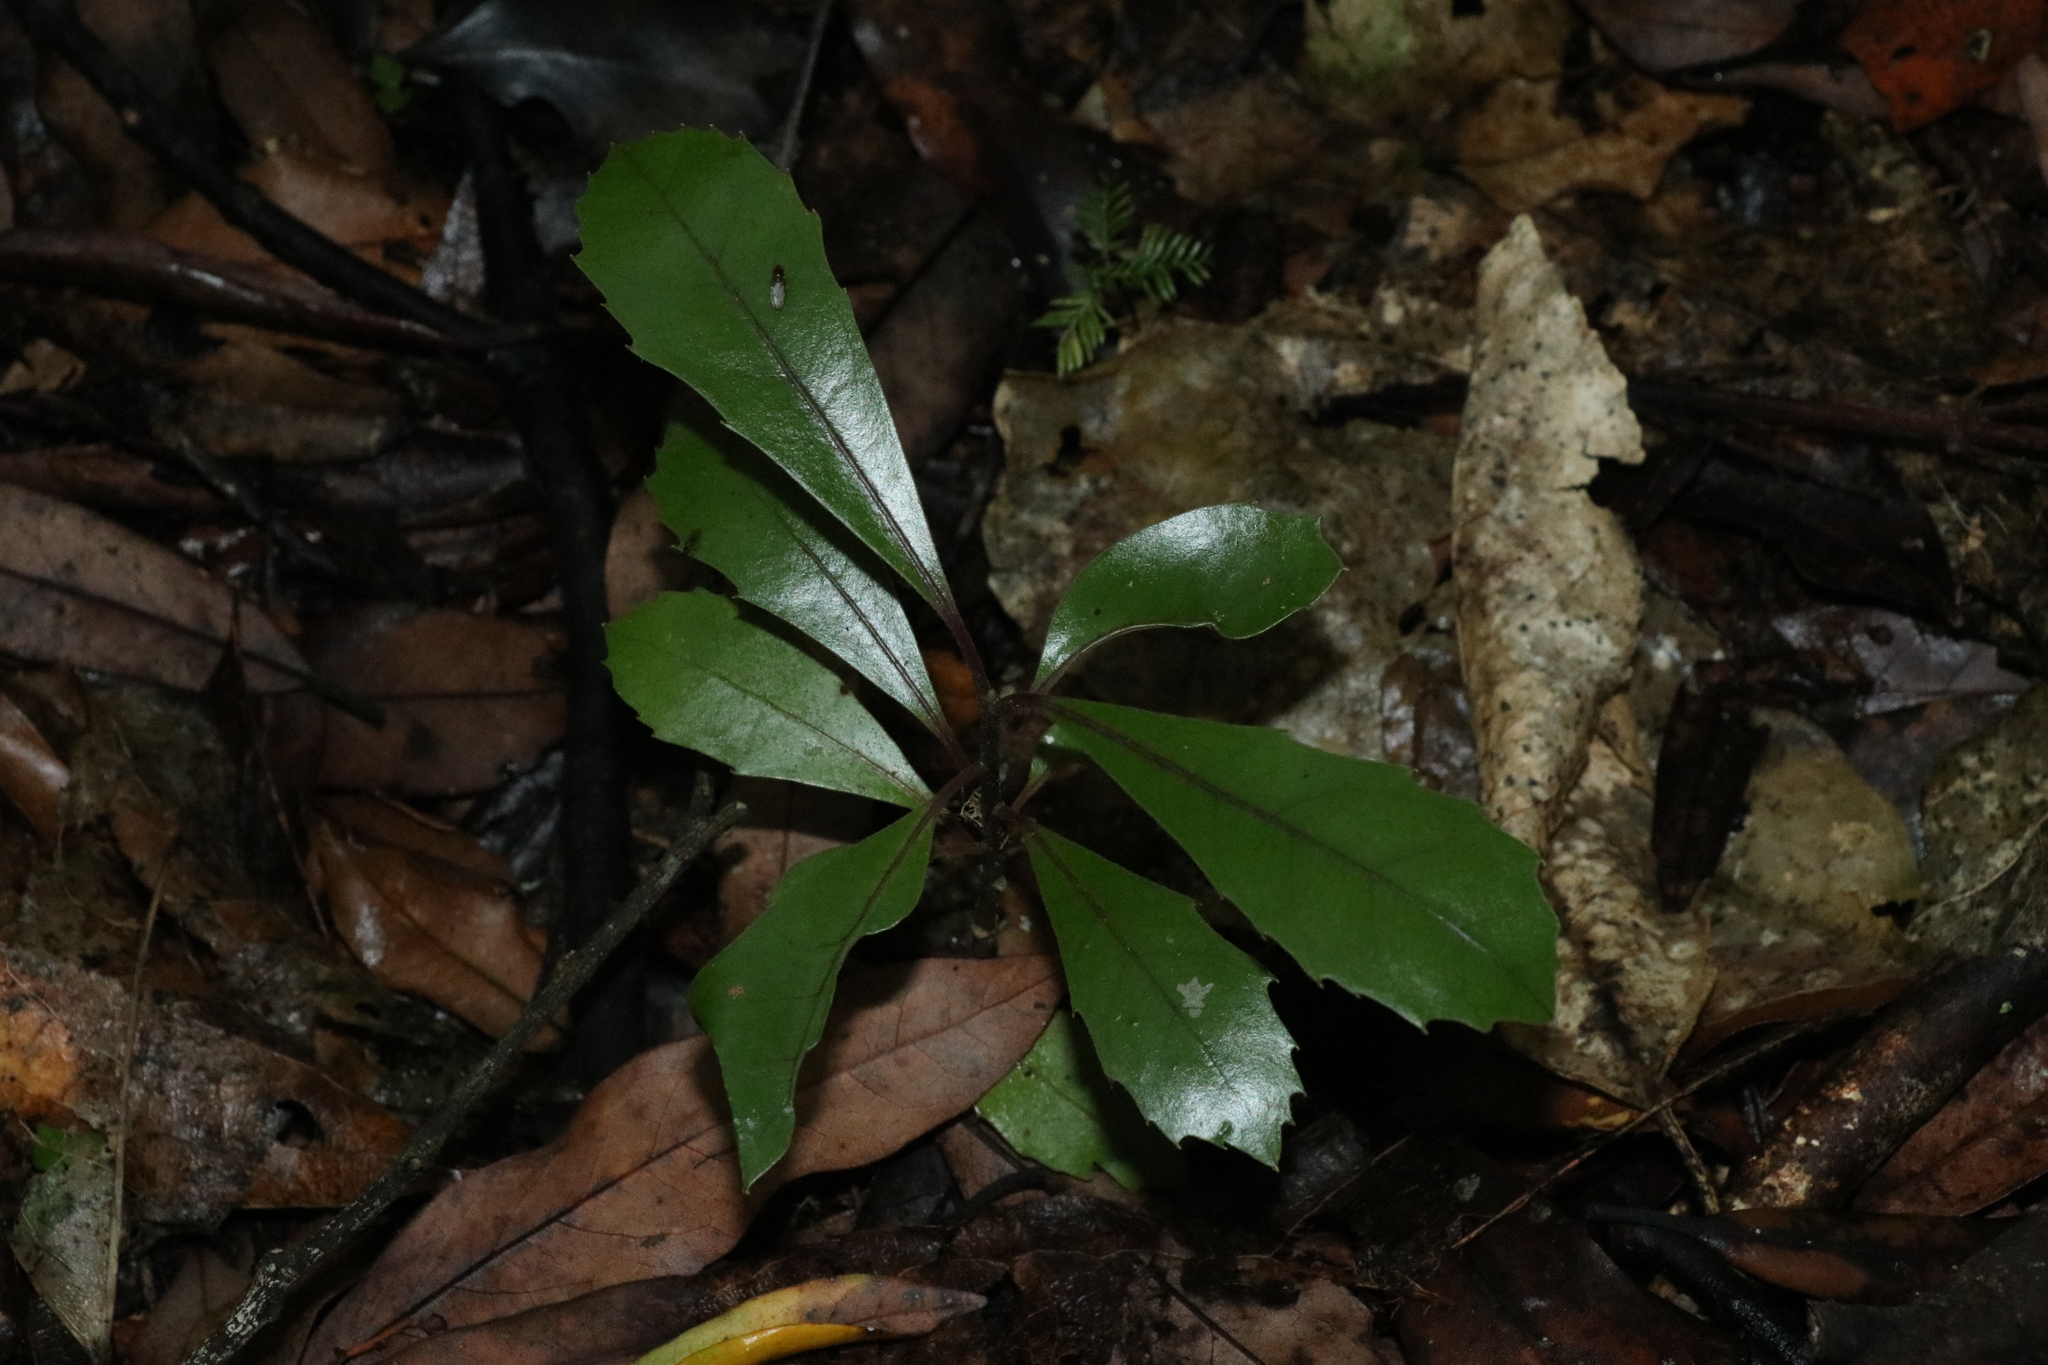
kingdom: Plantae
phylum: Tracheophyta
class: Magnoliopsida
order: Laurales
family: Monimiaceae
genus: Hedycarya
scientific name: Hedycarya arborea
